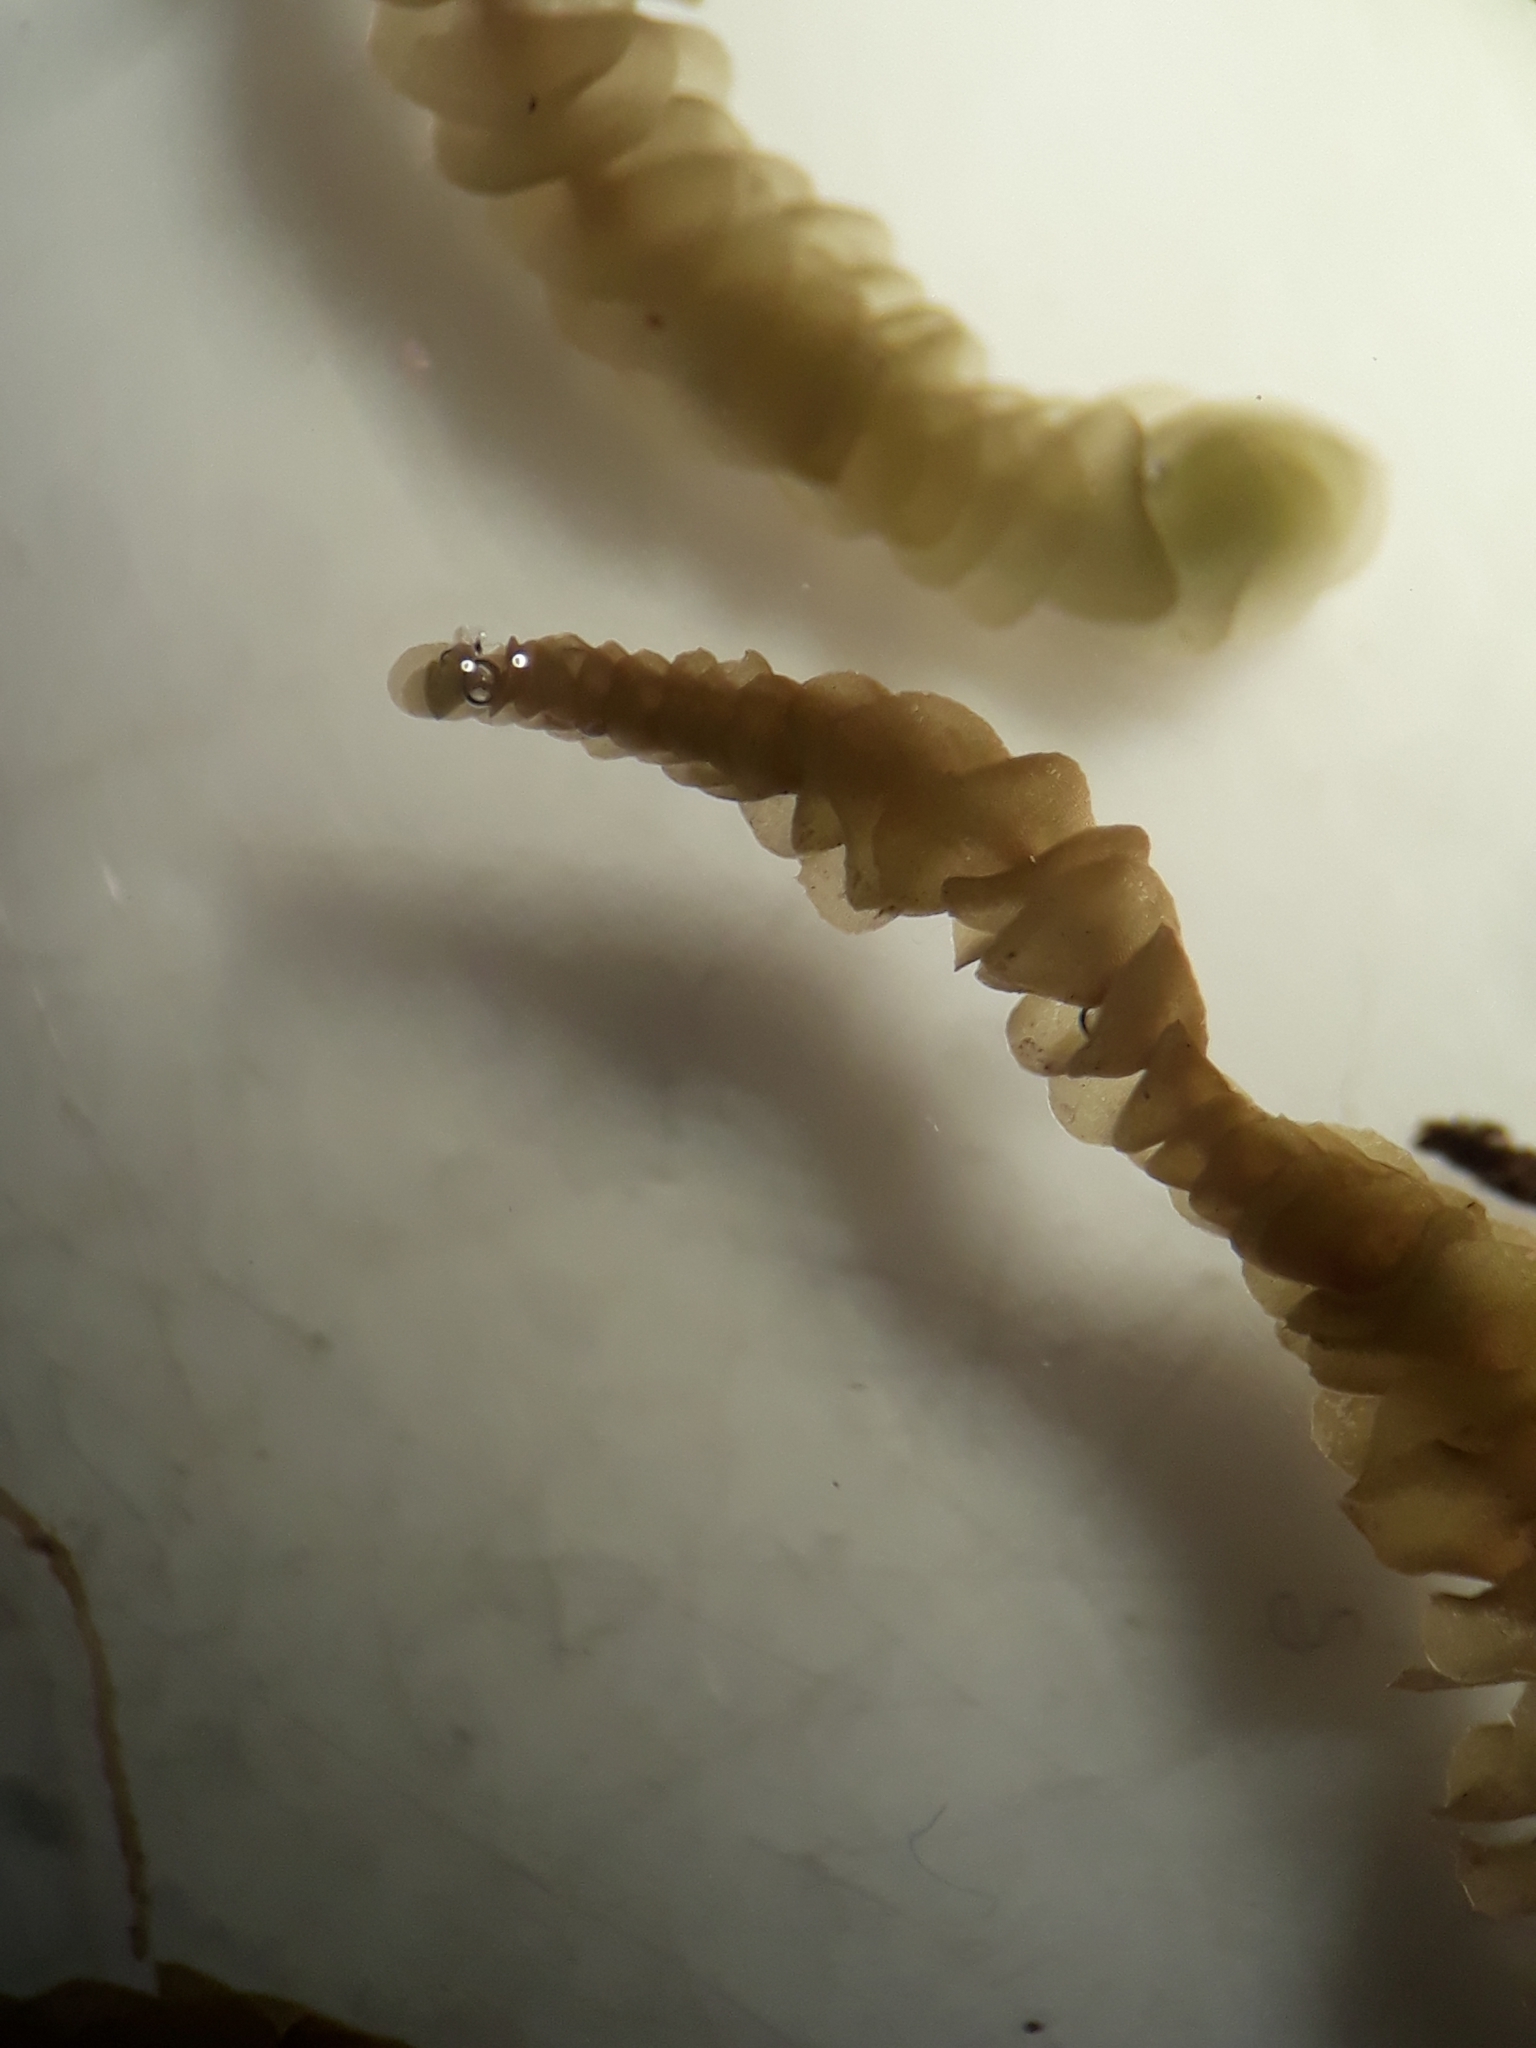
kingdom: Plantae
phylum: Marchantiophyta
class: Jungermanniopsida
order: Jungermanniales
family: Plagiochilaceae
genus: Chiastocaulon
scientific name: Chiastocaulon conjugatum
